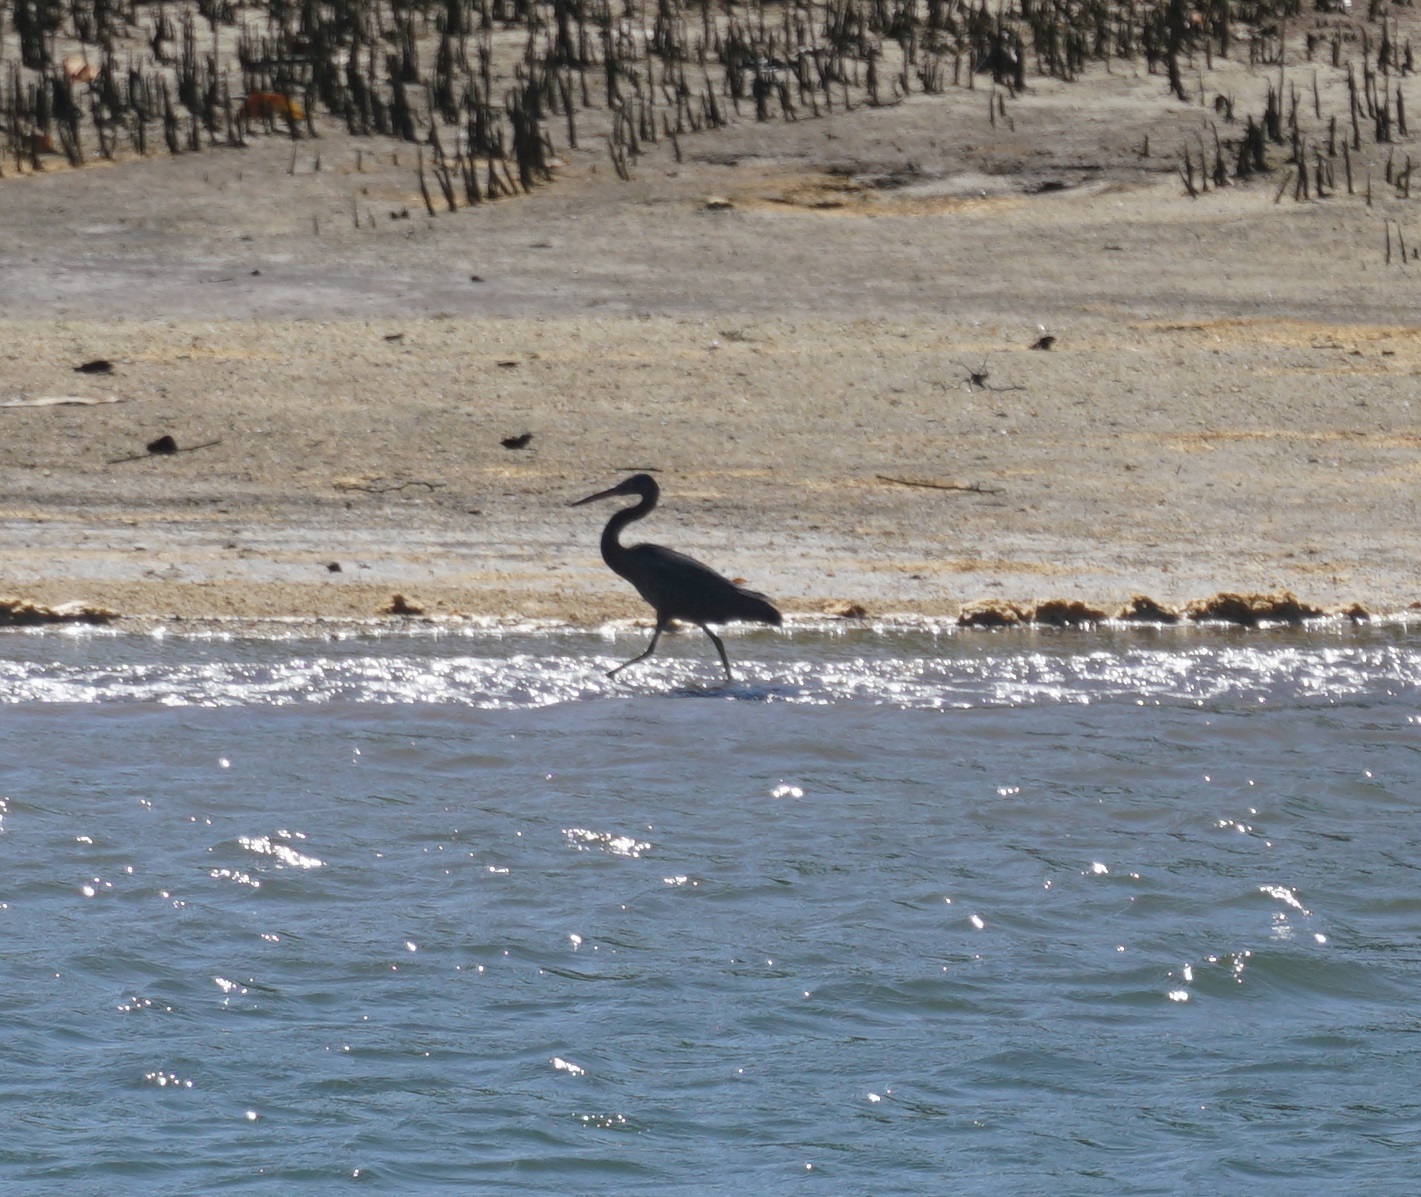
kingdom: Animalia
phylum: Chordata
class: Aves
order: Pelecaniformes
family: Ardeidae
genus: Egretta
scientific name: Egretta sacra
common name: Pacific reef heron
